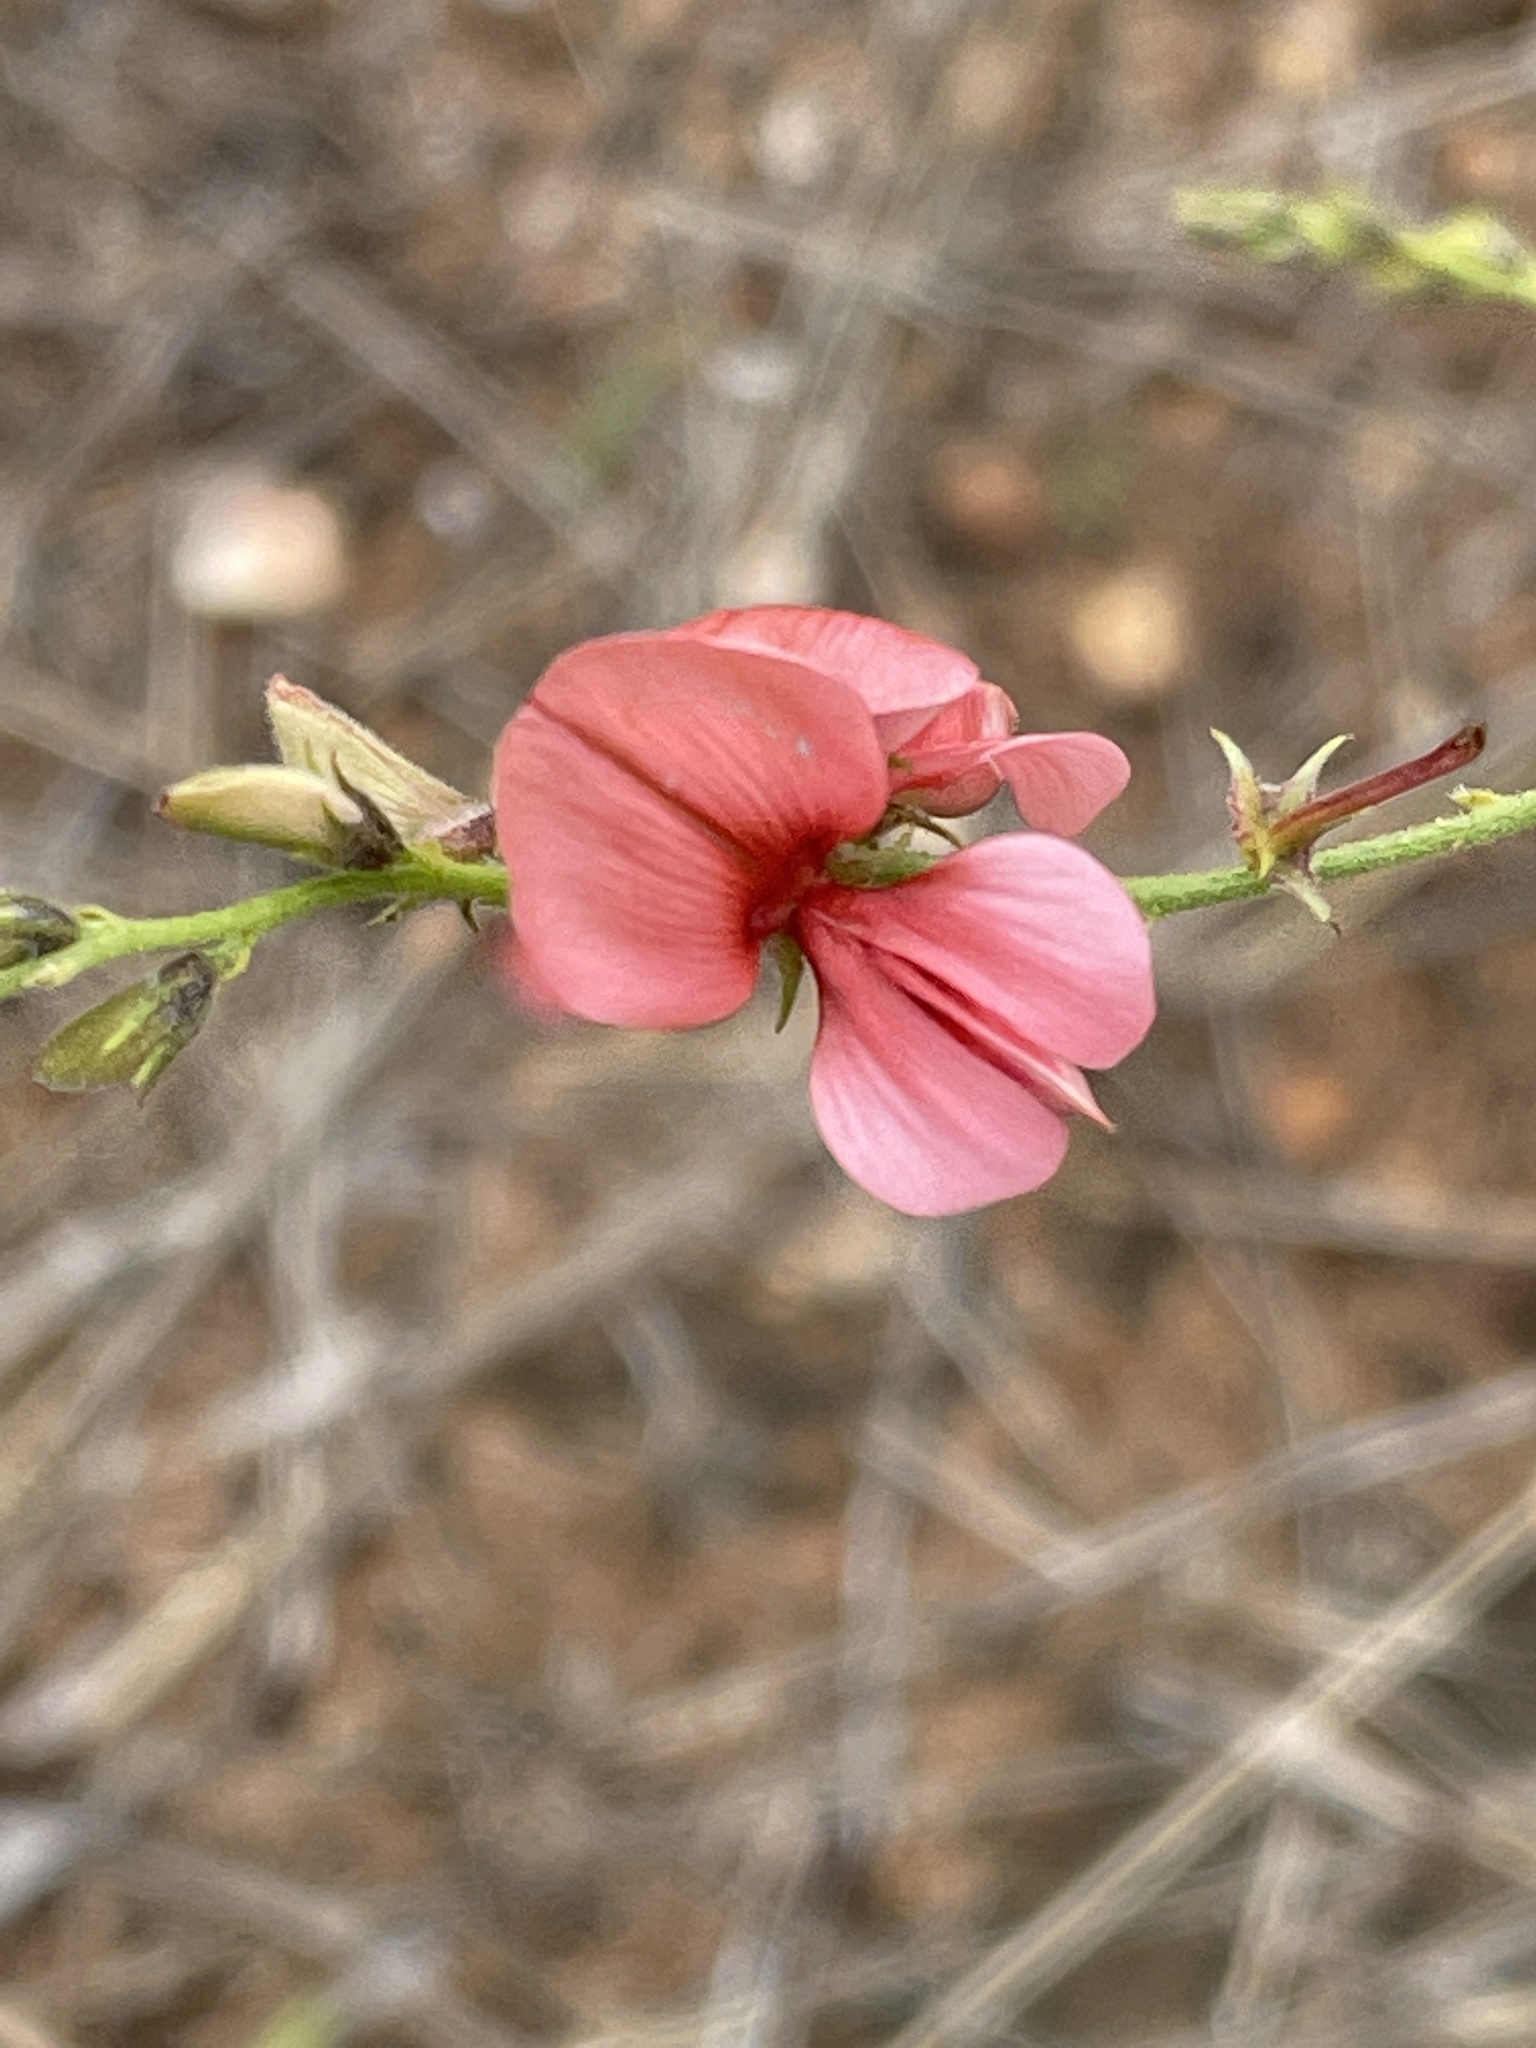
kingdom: Plantae
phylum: Tracheophyta
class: Magnoliopsida
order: Fabales
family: Fabaceae
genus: Indigofera
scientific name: Indigofera heterotricha
